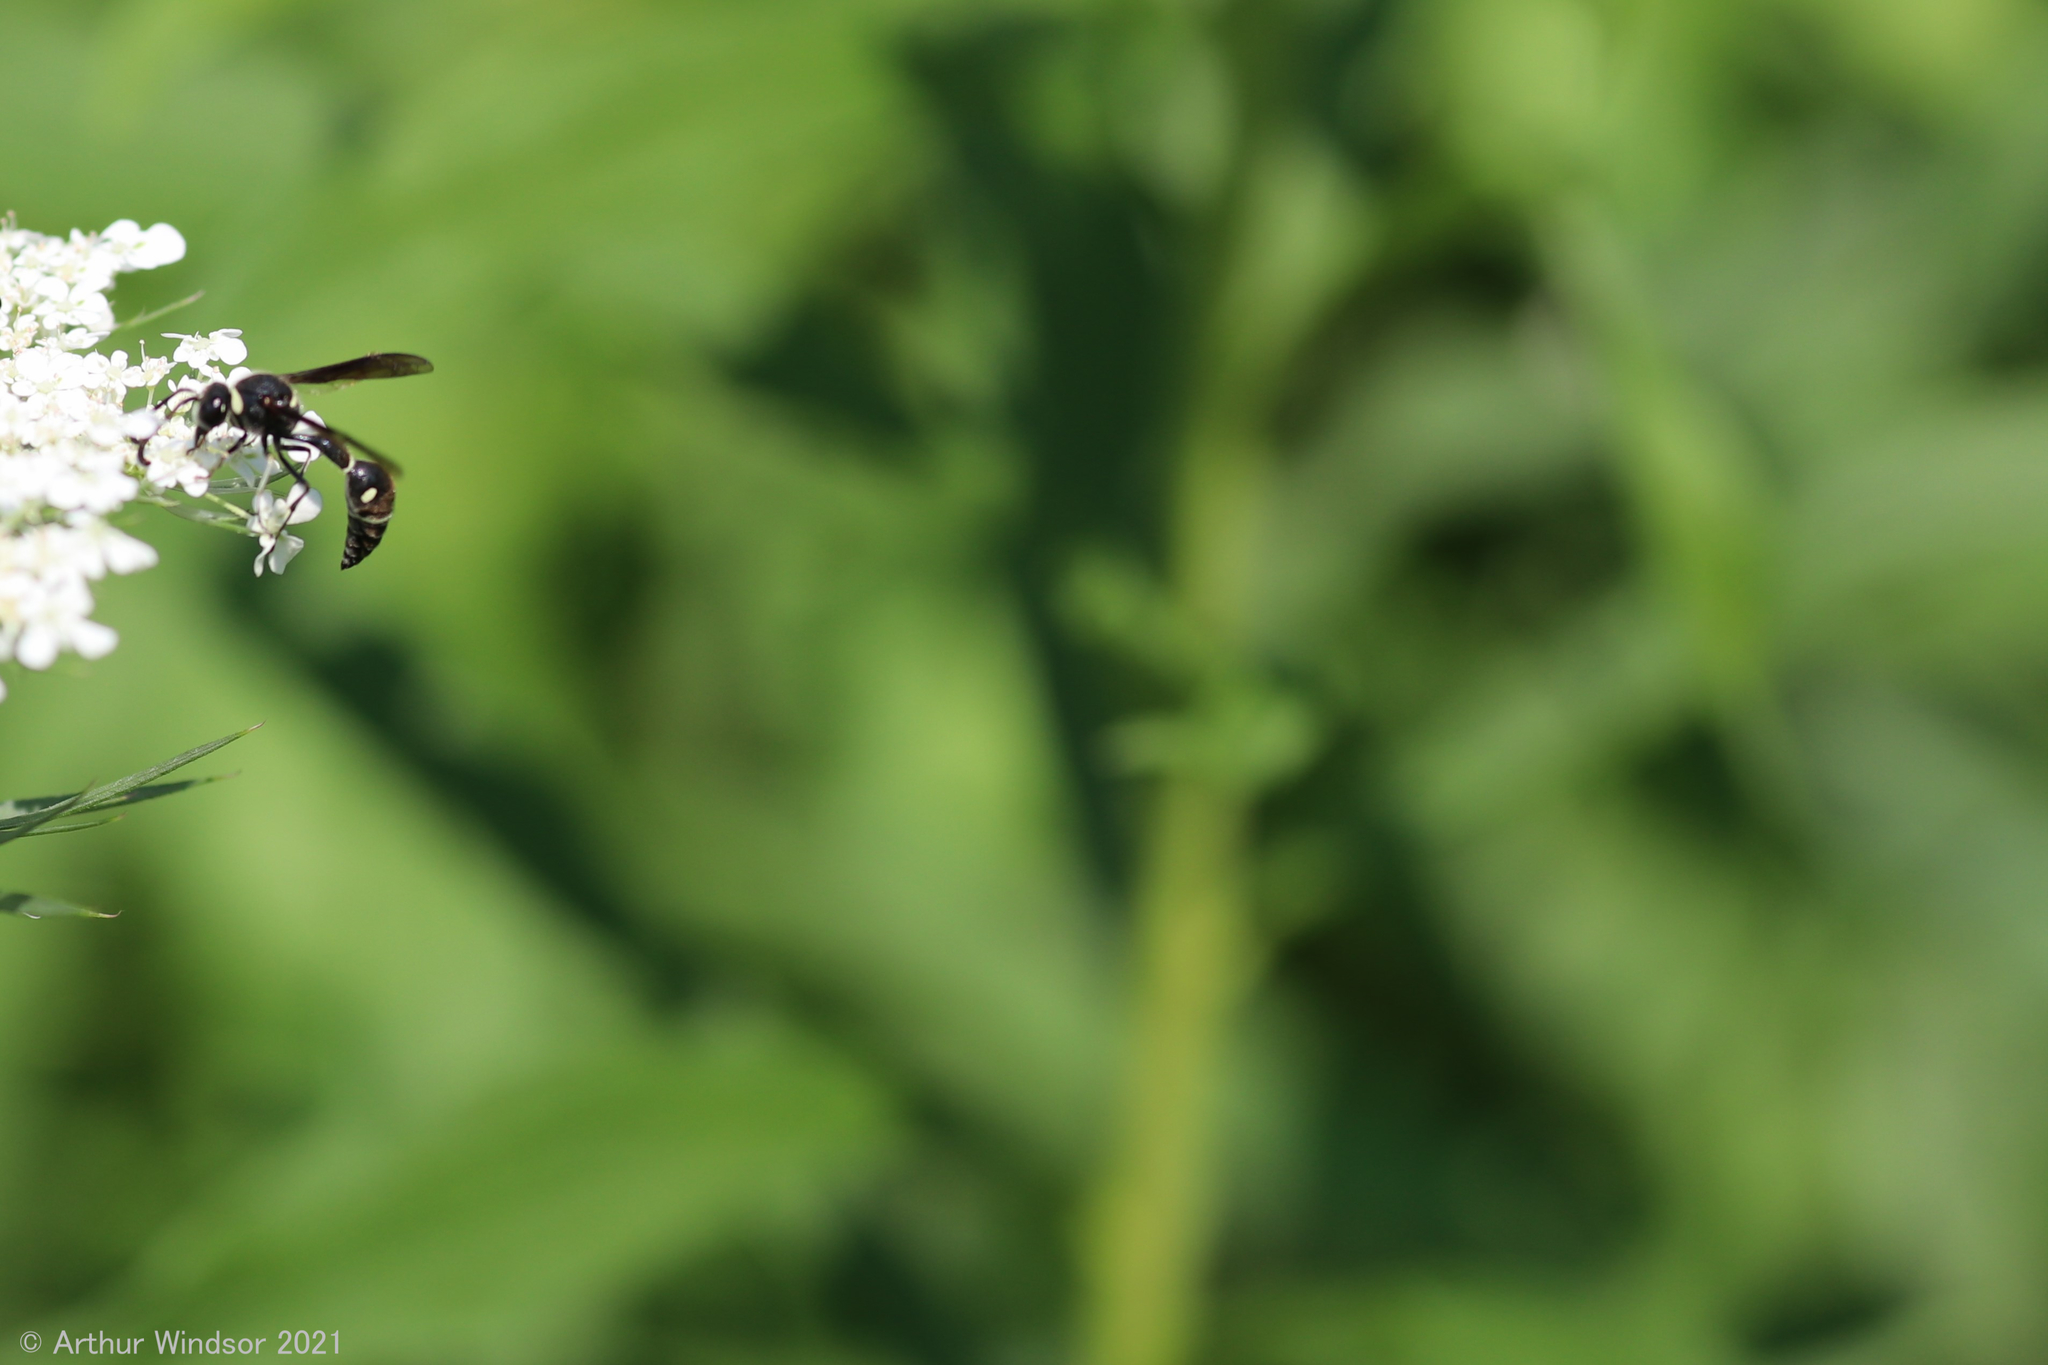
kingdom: Animalia
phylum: Arthropoda
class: Insecta
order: Hymenoptera
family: Vespidae
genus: Eumenes
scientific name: Eumenes fraternus
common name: Fraternal potter wasp
